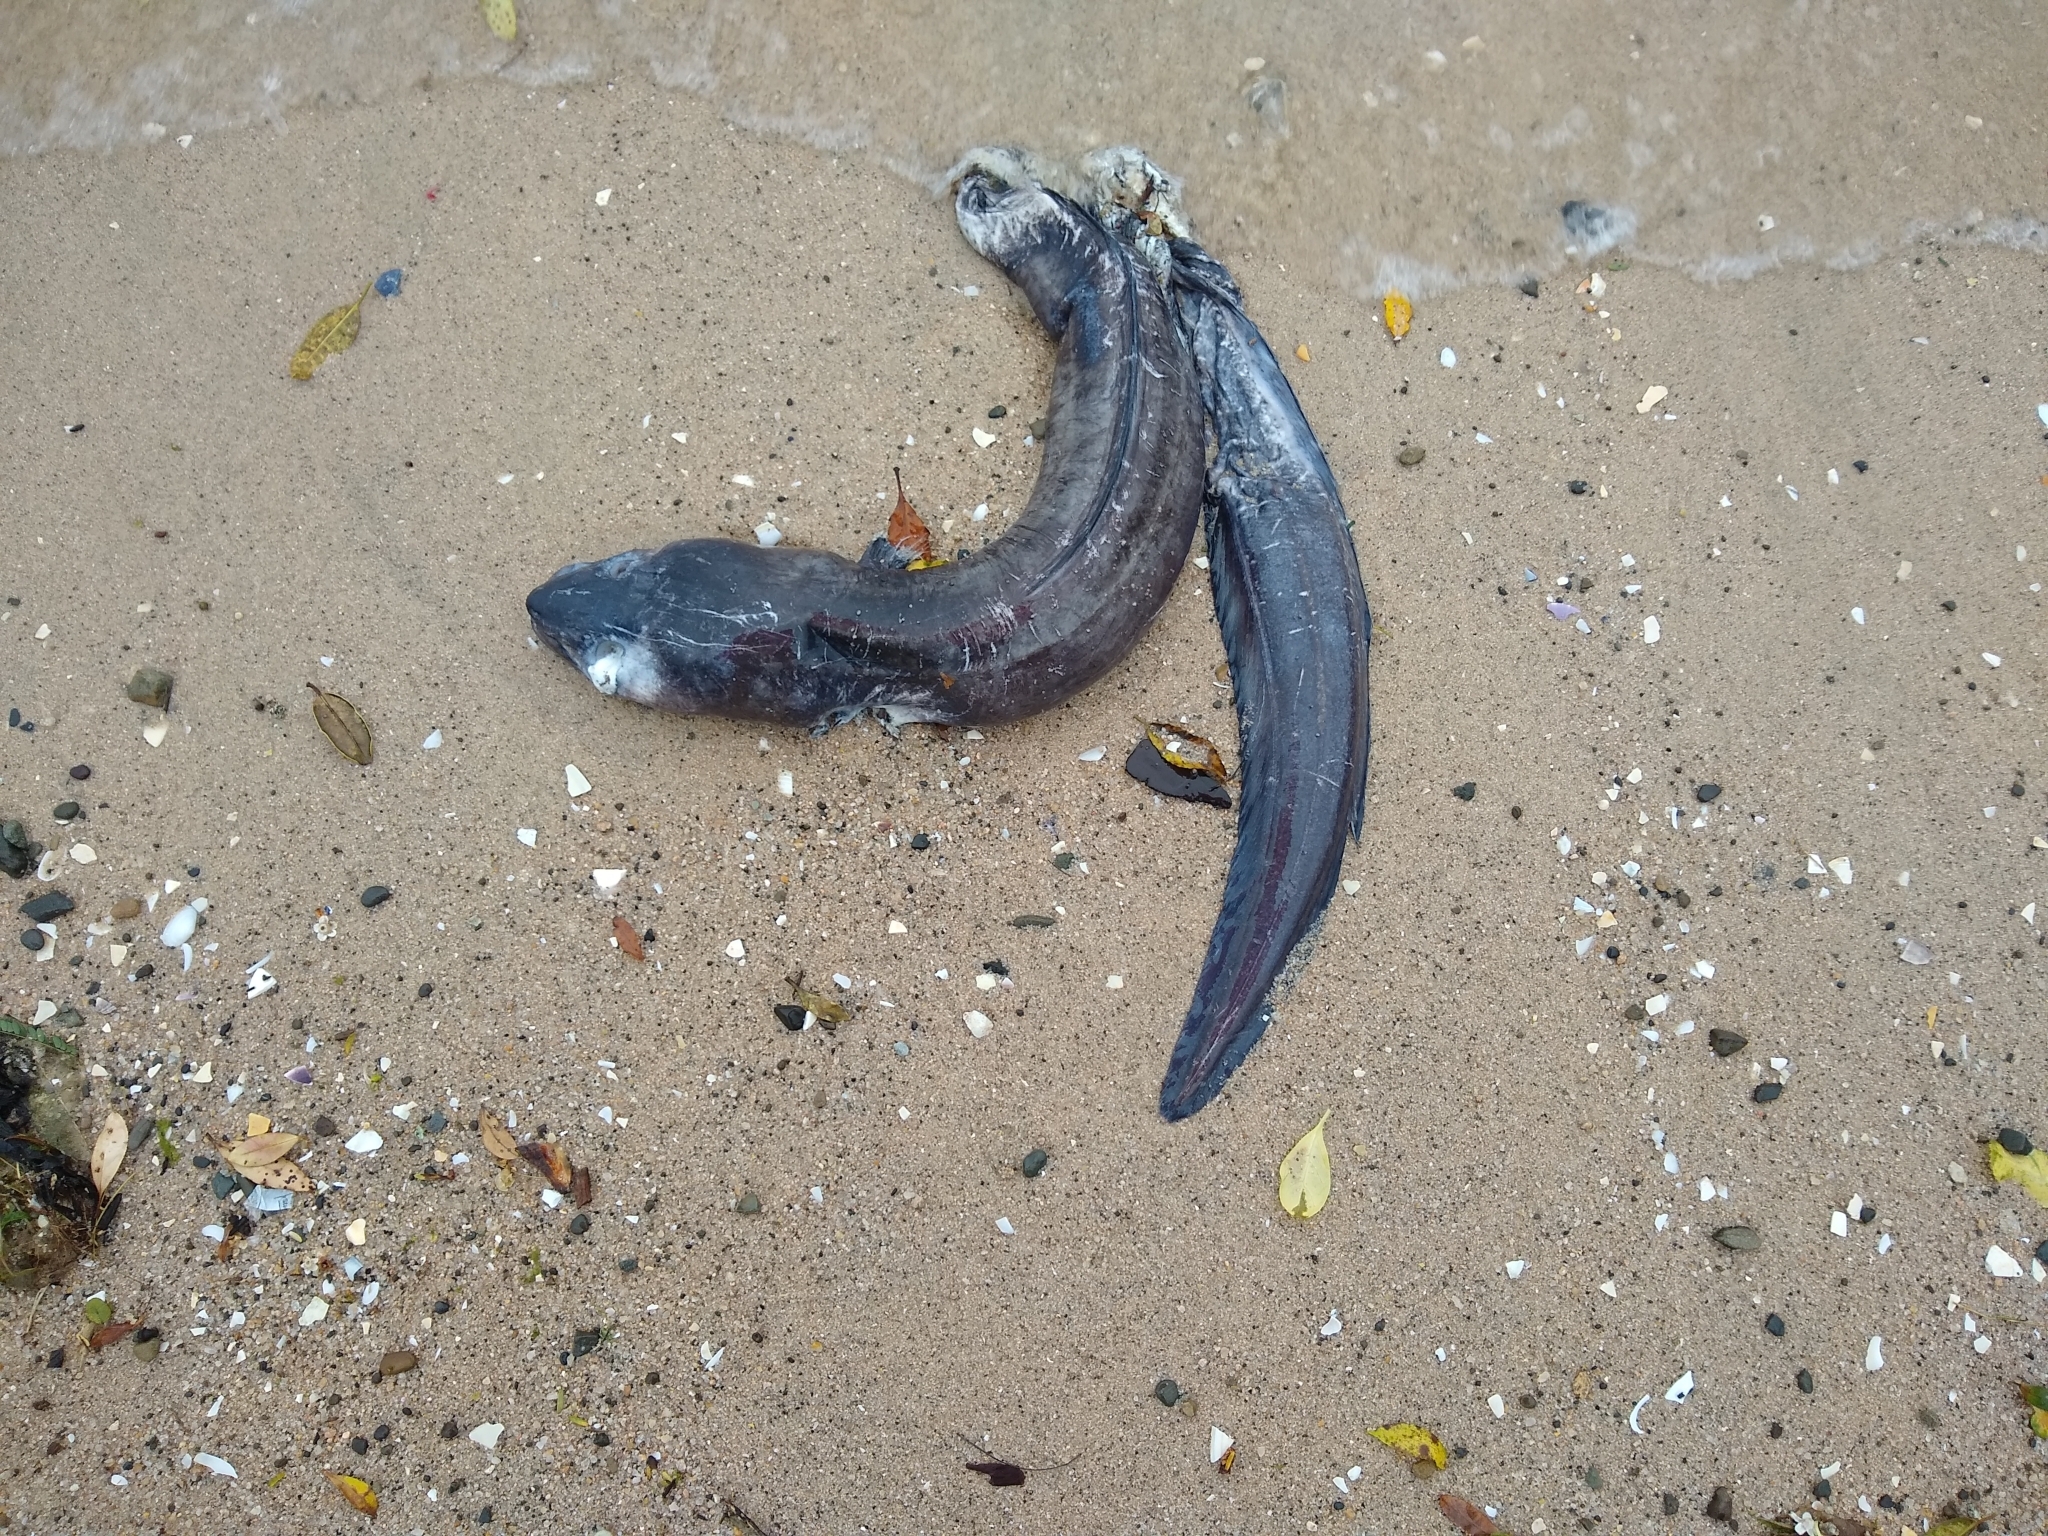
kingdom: Animalia
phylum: Chordata
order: Anguilliformes
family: Congridae
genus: Conger
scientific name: Conger verreauxi
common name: Conger eel
